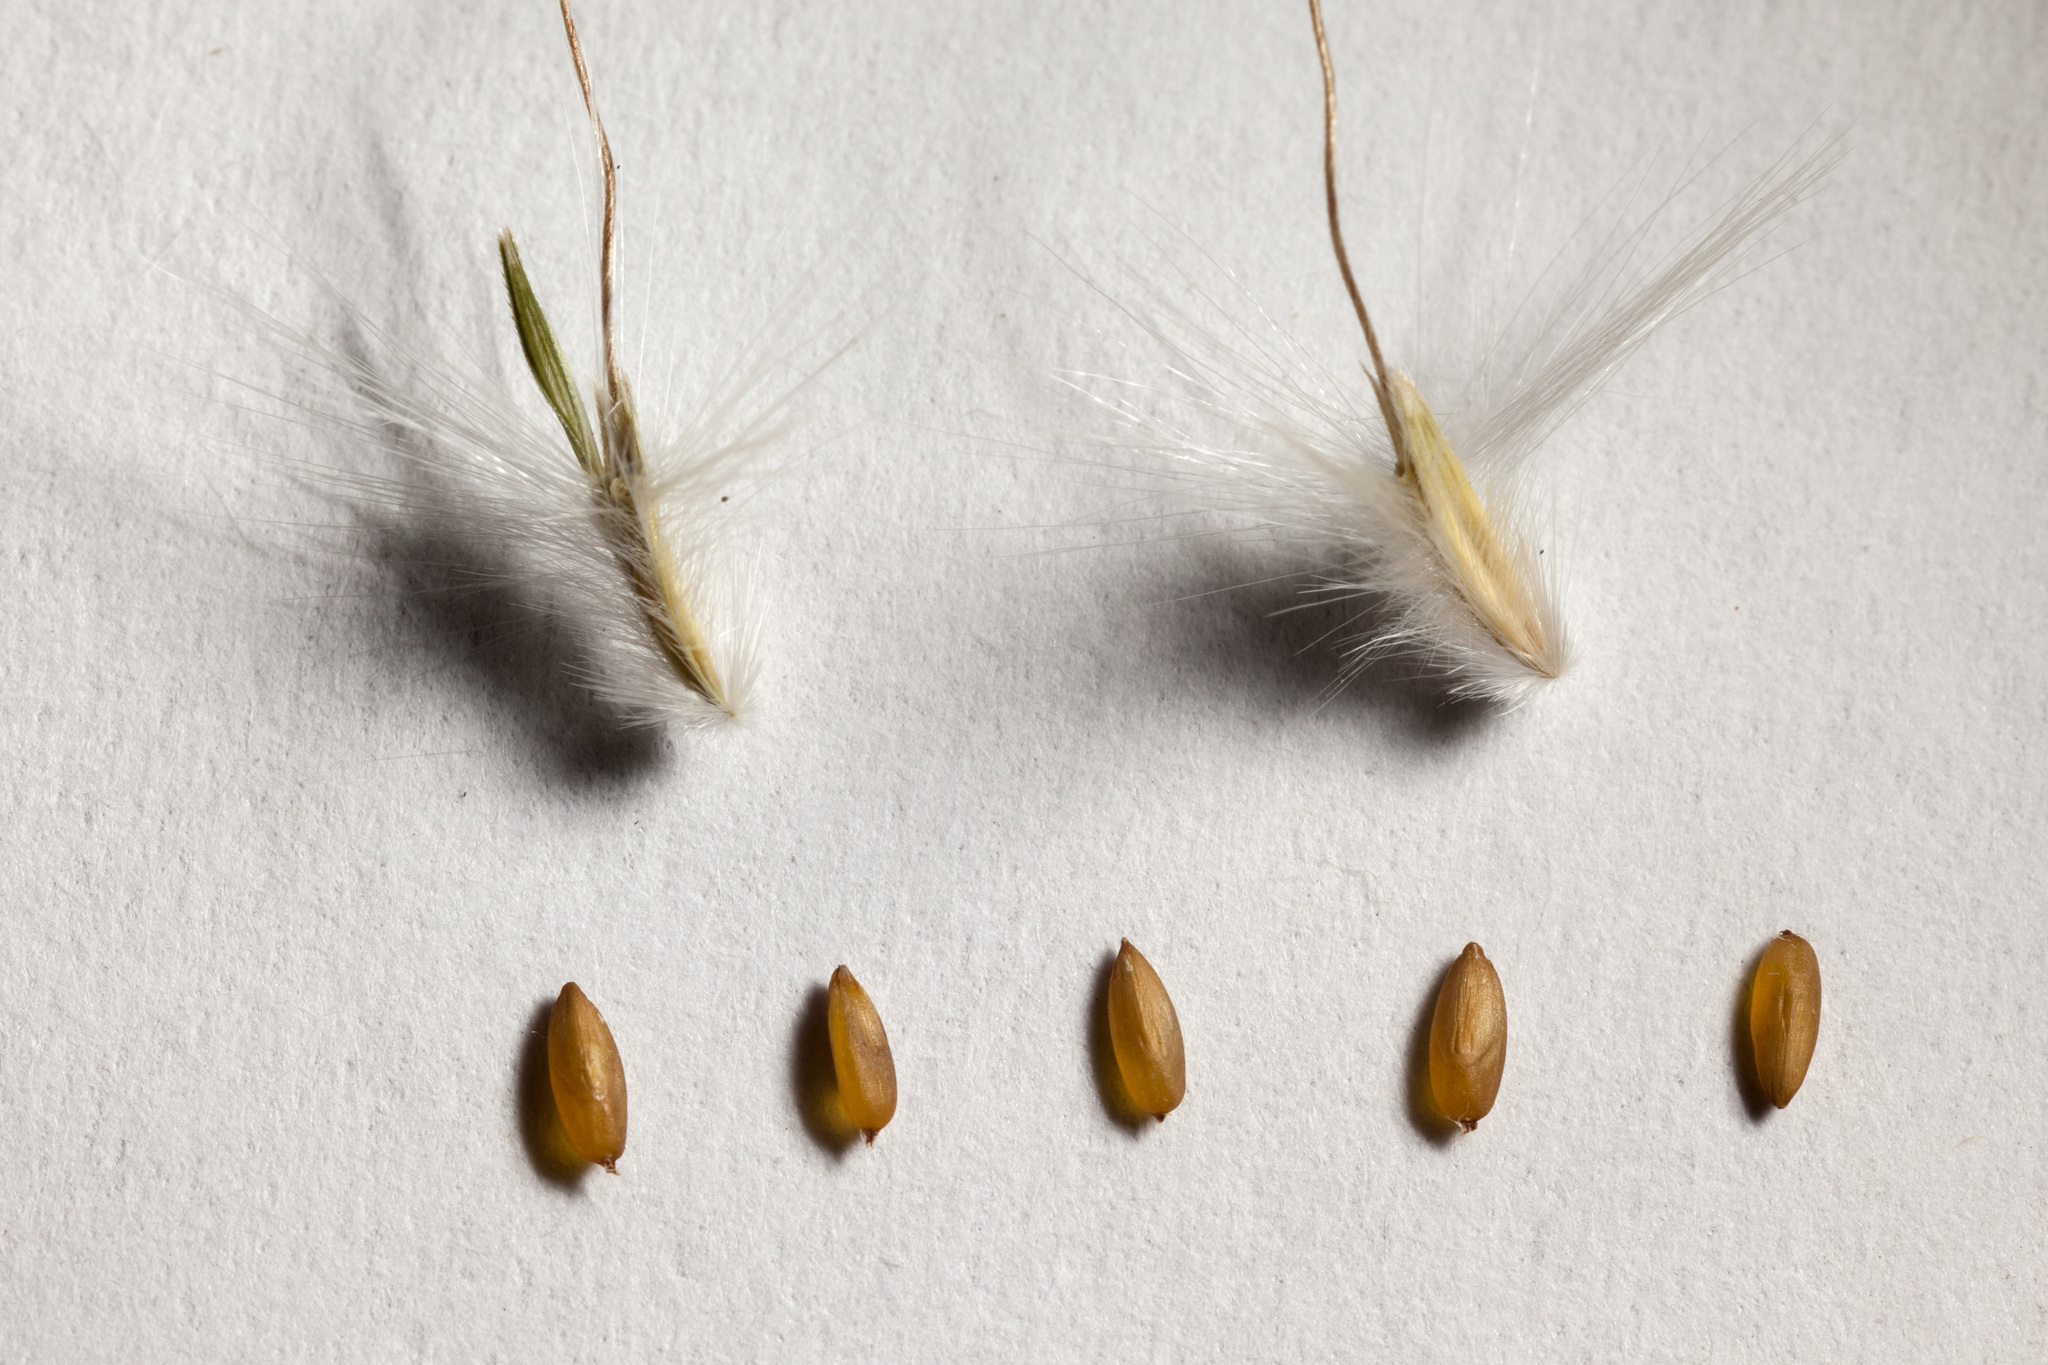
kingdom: Plantae
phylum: Tracheophyta
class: Liliopsida
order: Poales
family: Poaceae
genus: Bothriochloa
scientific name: Bothriochloa barbinodis
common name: Cane bluestem
